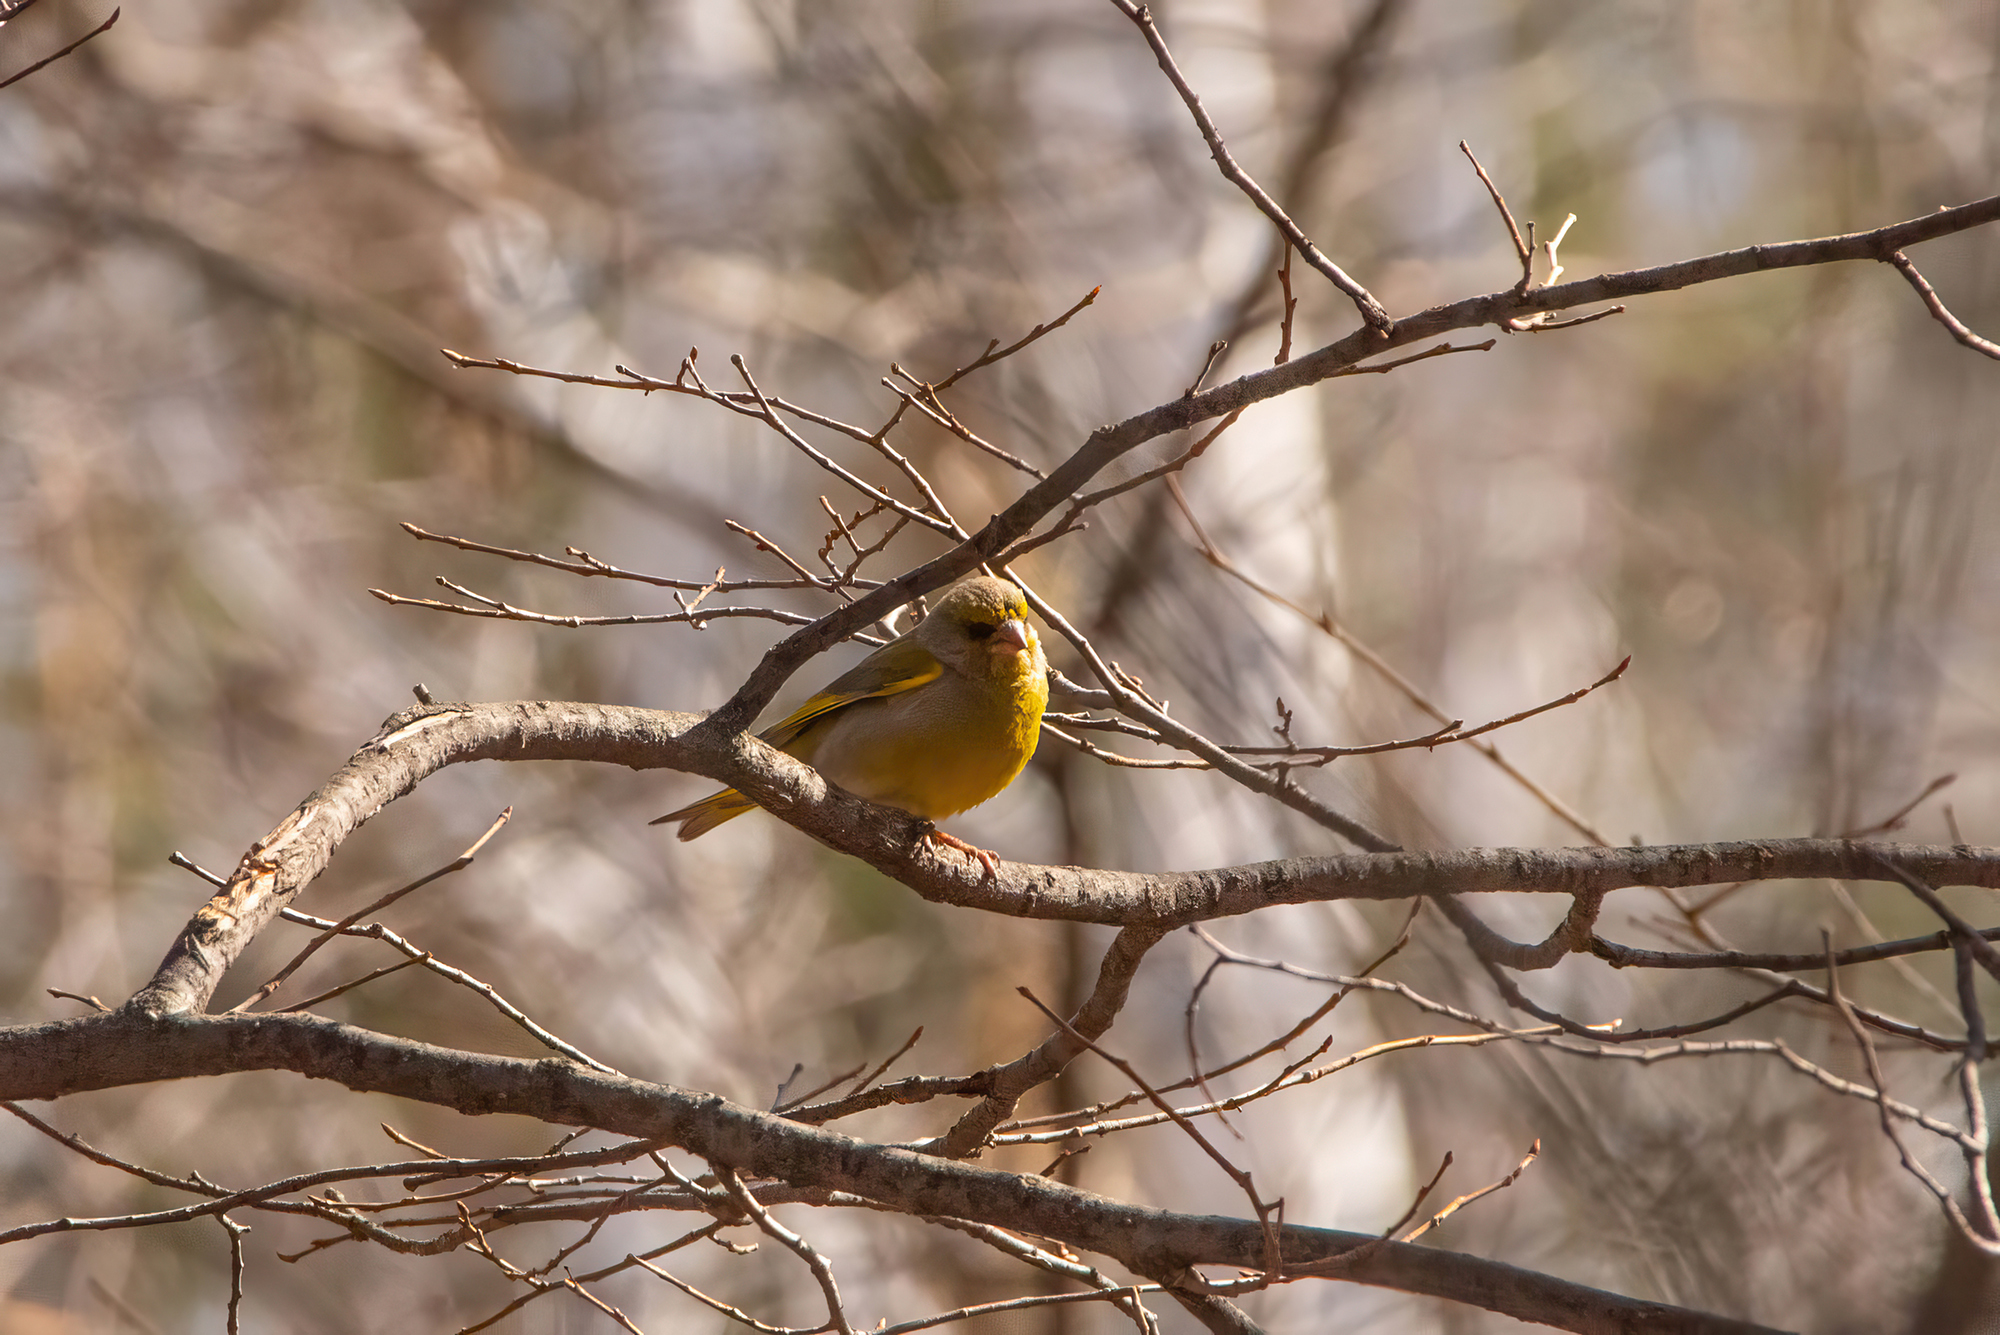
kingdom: Plantae
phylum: Tracheophyta
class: Liliopsida
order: Poales
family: Poaceae
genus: Chloris
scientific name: Chloris chloris
